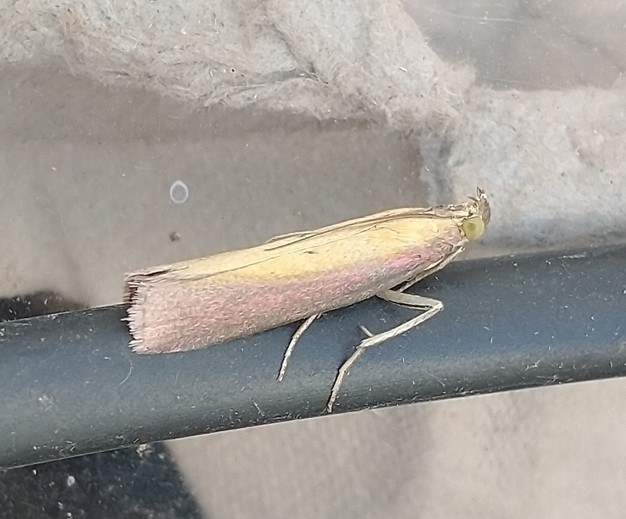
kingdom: Animalia
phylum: Arthropoda
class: Insecta
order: Lepidoptera
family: Pyralidae
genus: Oncocera
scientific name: Oncocera semirubella
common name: Rosy-striped knot-horn
